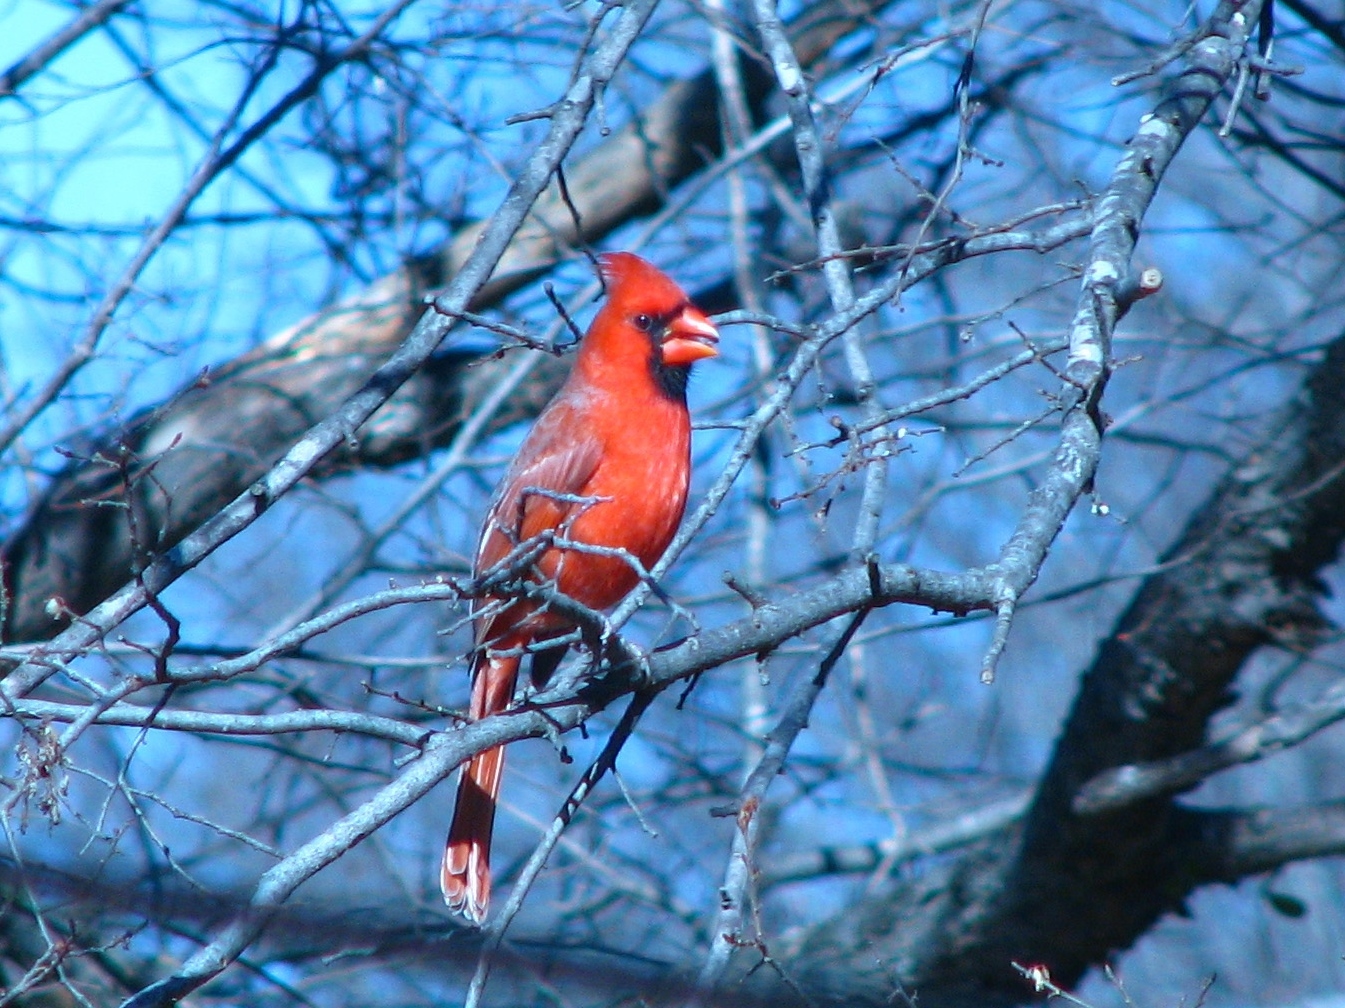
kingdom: Animalia
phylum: Chordata
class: Aves
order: Passeriformes
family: Cardinalidae
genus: Cardinalis
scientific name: Cardinalis cardinalis
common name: Northern cardinal
